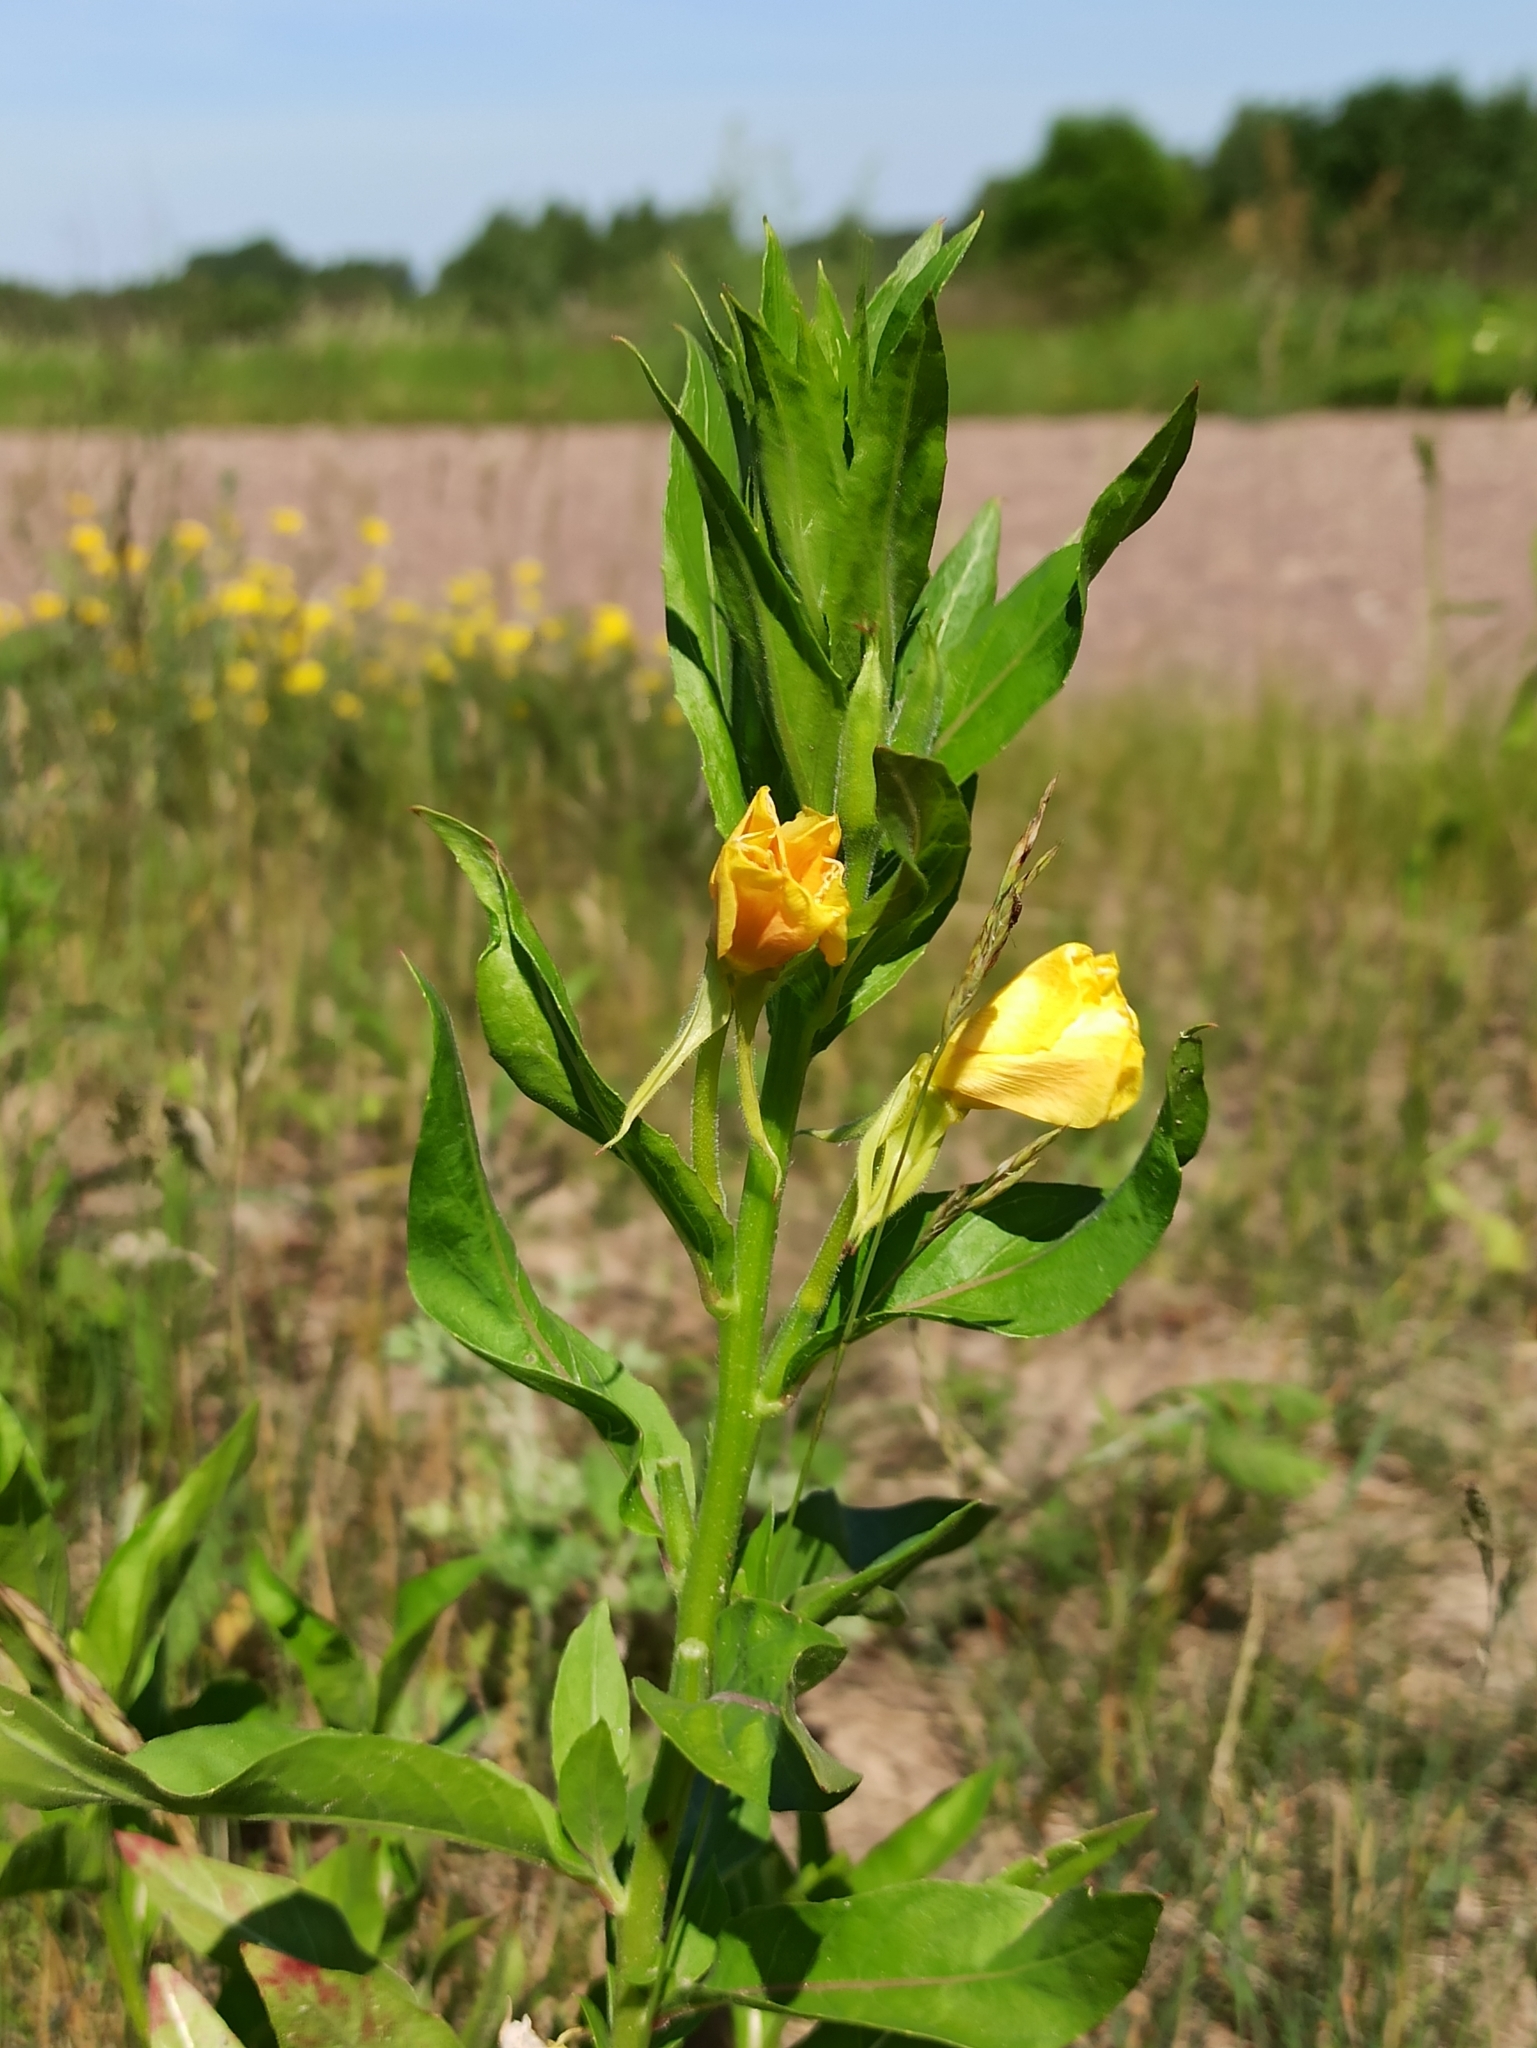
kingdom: Plantae
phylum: Tracheophyta
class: Magnoliopsida
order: Myrtales
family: Onagraceae
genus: Oenothera
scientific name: Oenothera biennis
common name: Common evening-primrose
